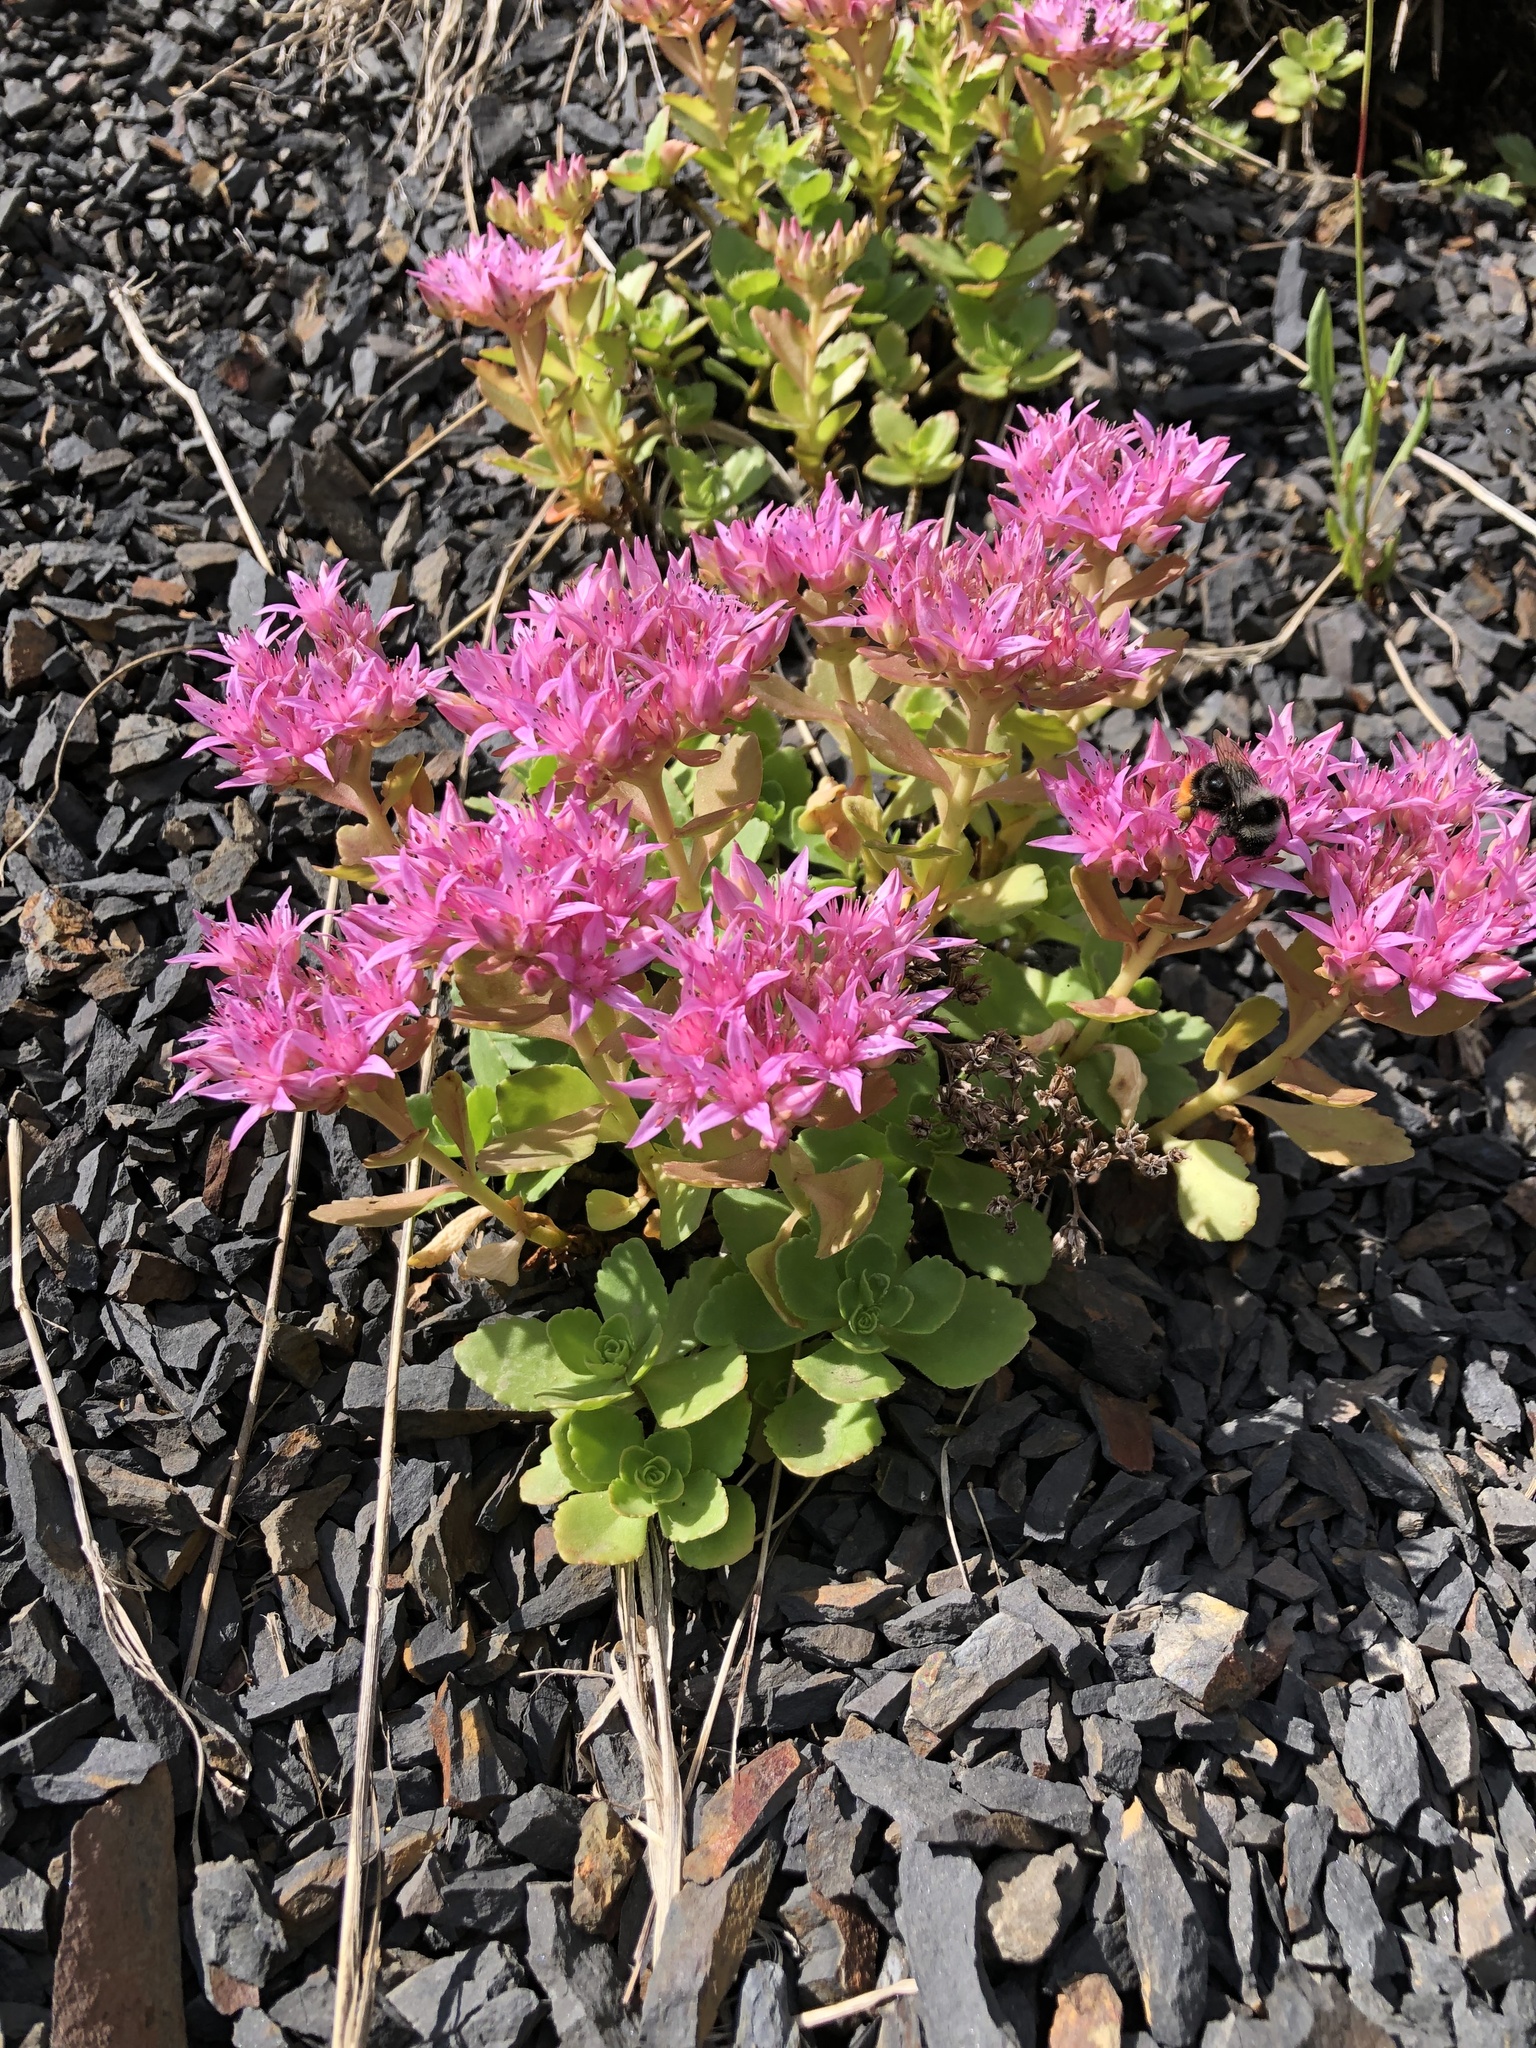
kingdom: Plantae
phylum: Tracheophyta
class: Magnoliopsida
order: Saxifragales
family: Crassulaceae
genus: Phedimus
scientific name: Phedimus spurius
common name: Caucasian stonecrop
